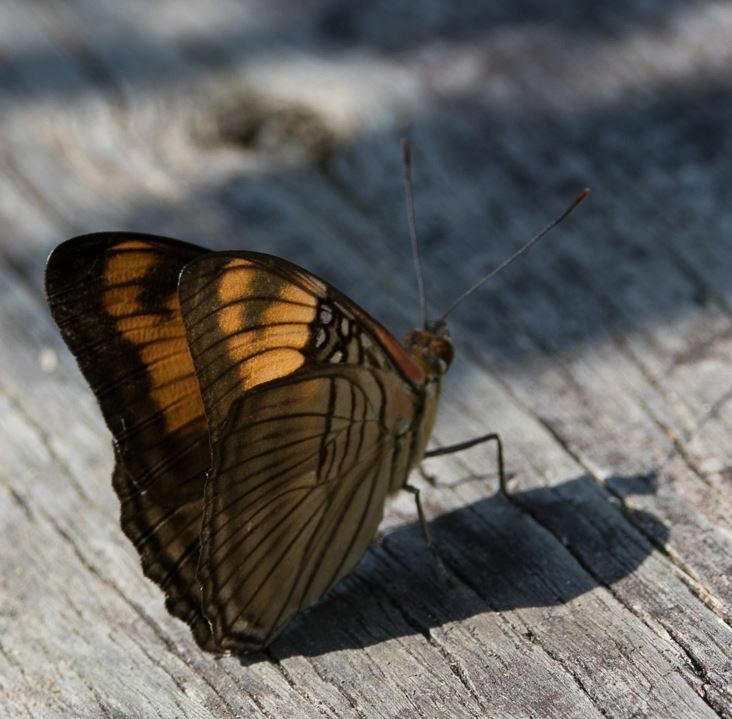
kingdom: Animalia
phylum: Arthropoda
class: Insecta
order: Lepidoptera
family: Nymphalidae
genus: Limenitis
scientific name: Limenitis mesentina
